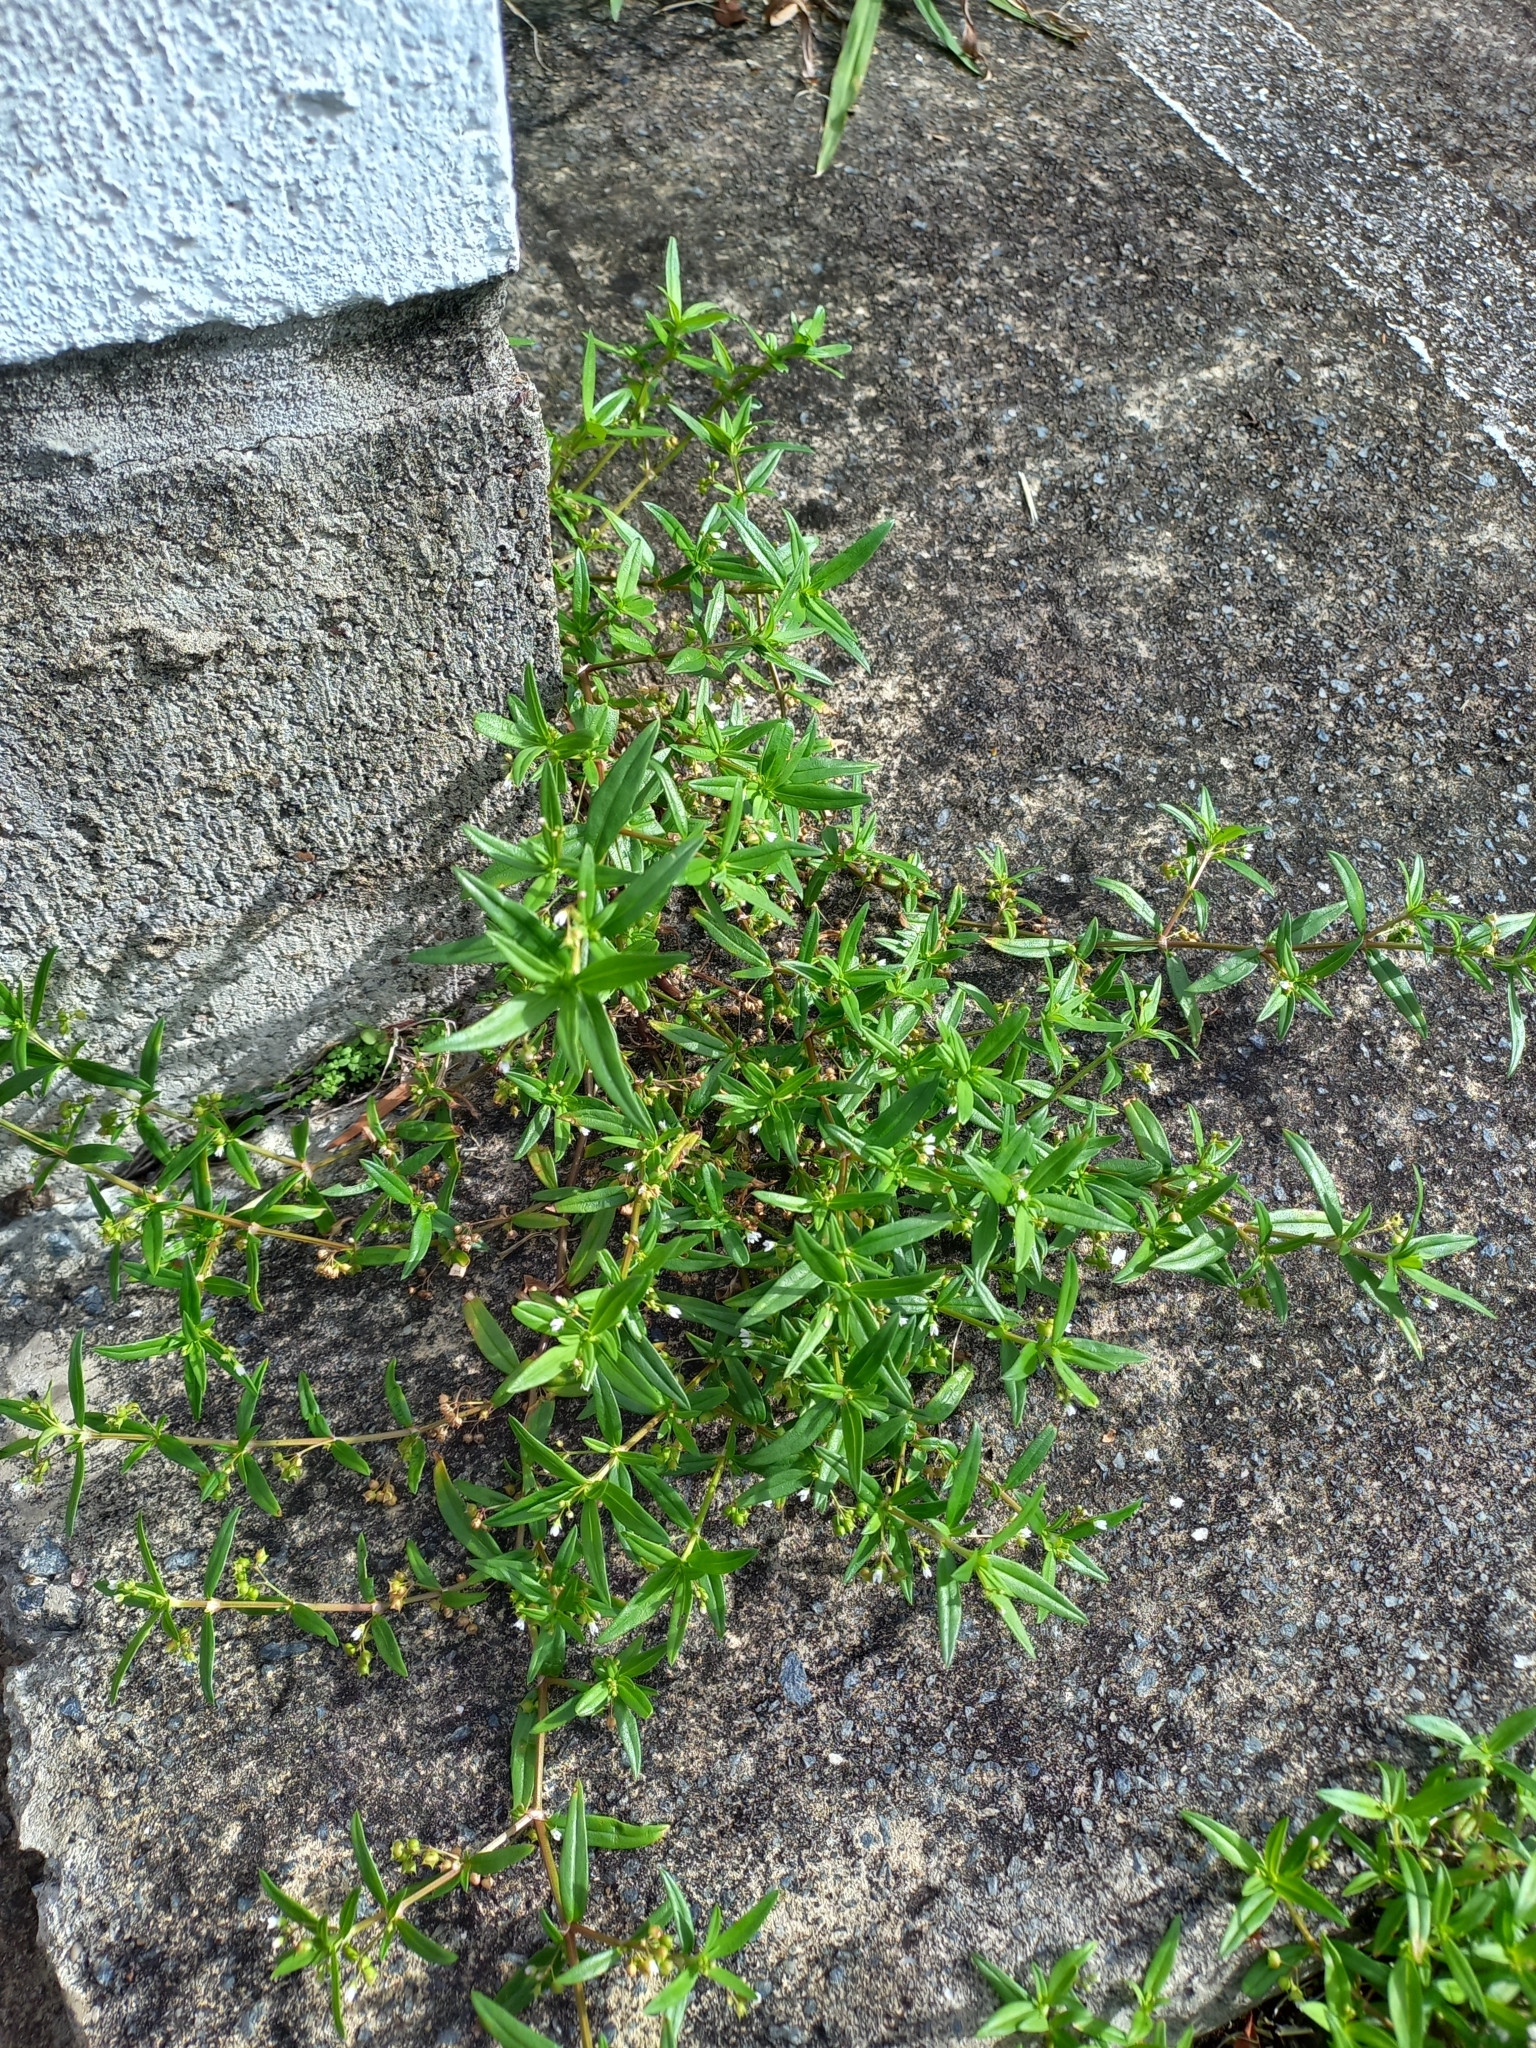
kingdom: Plantae
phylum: Tracheophyta
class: Magnoliopsida
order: Gentianales
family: Rubiaceae
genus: Oldenlandia
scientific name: Oldenlandia corymbosa
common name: Flat-top mille graines
